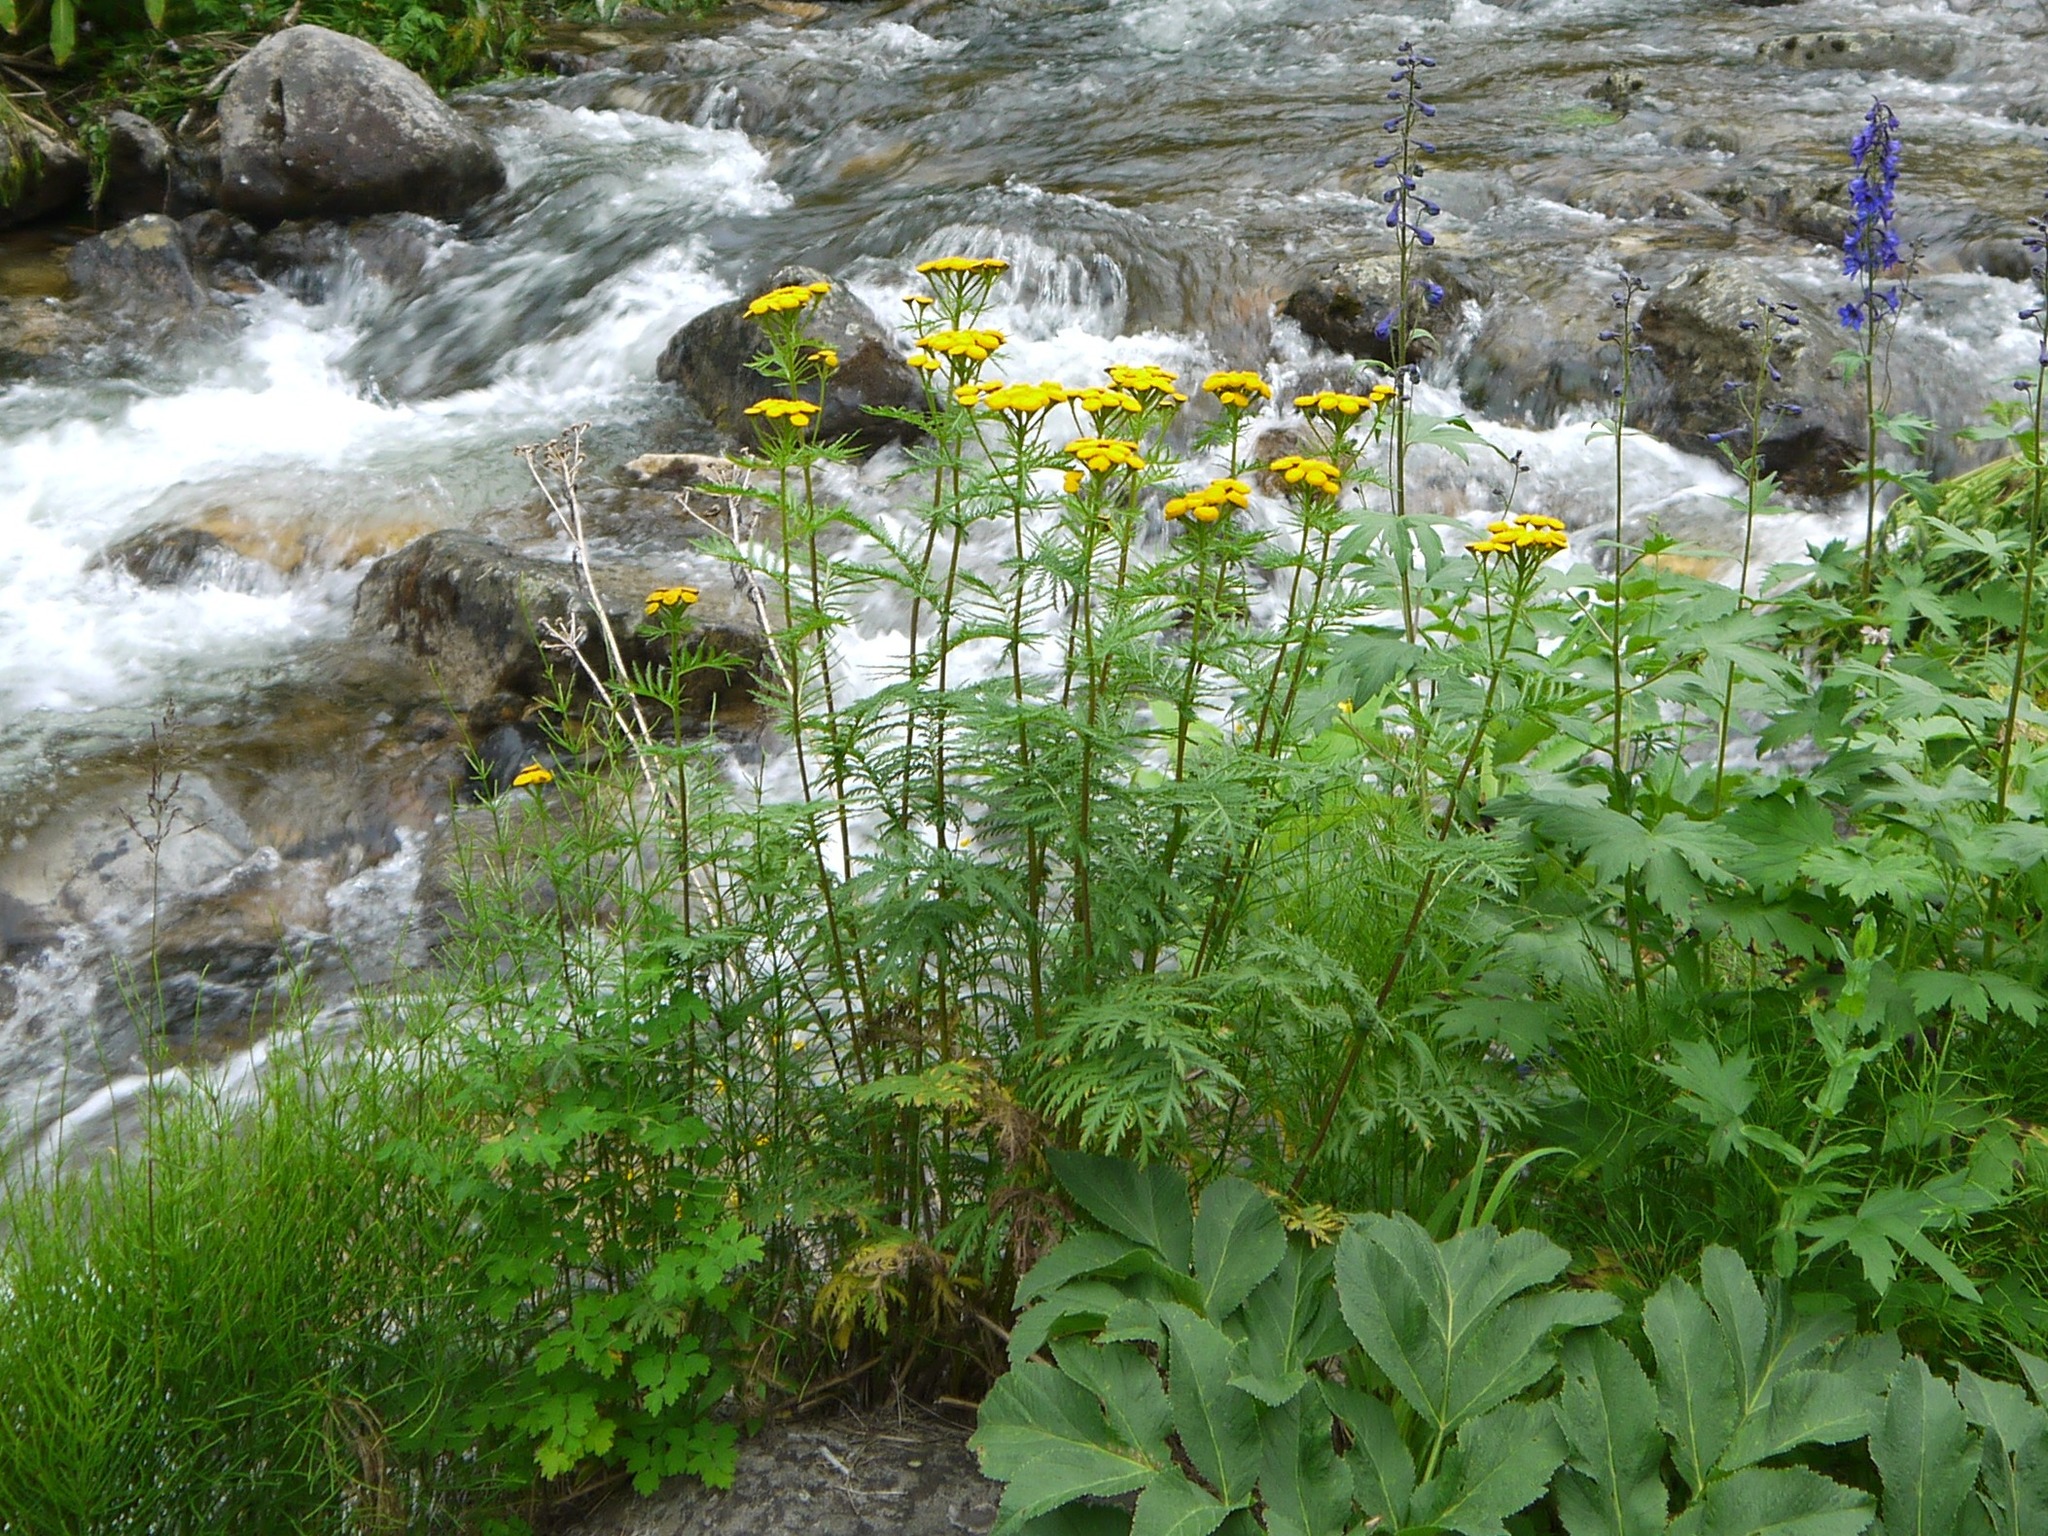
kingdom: Plantae
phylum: Tracheophyta
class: Magnoliopsida
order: Asterales
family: Asteraceae
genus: Tanacetum
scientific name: Tanacetum vulgare
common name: Common tansy
